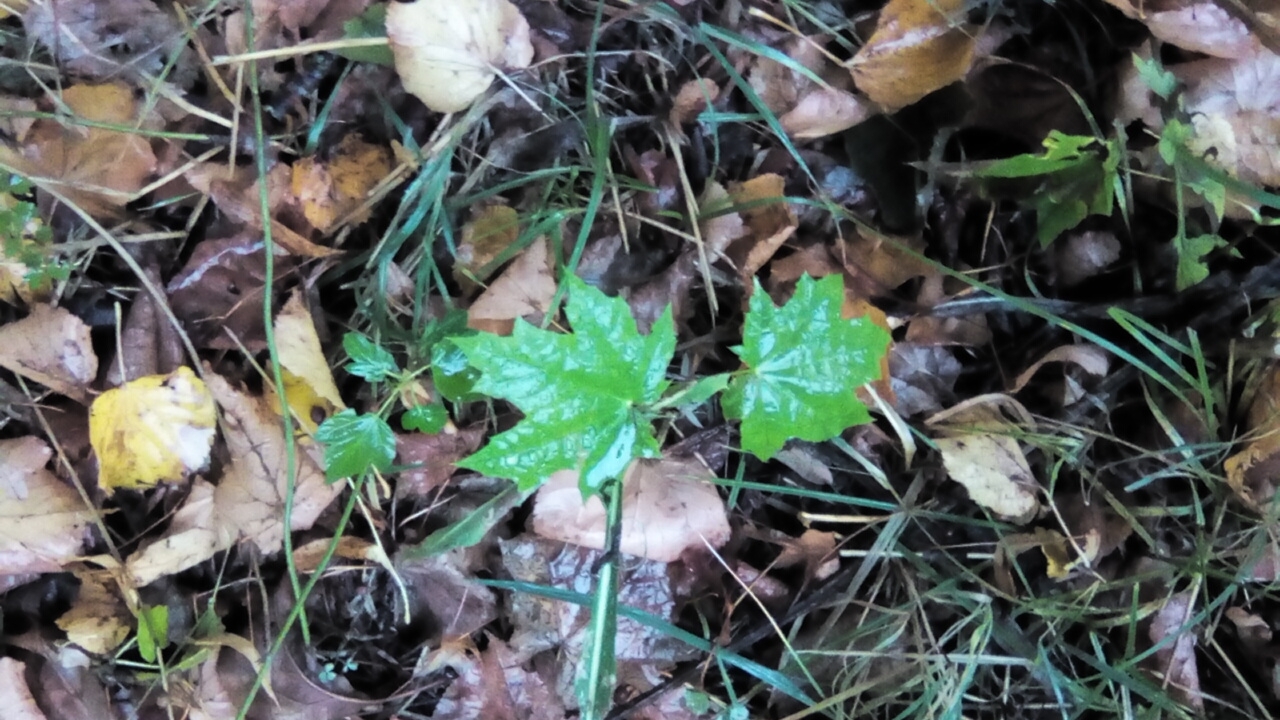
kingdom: Plantae
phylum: Tracheophyta
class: Magnoliopsida
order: Sapindales
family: Sapindaceae
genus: Acer
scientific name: Acer platanoides
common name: Norway maple
